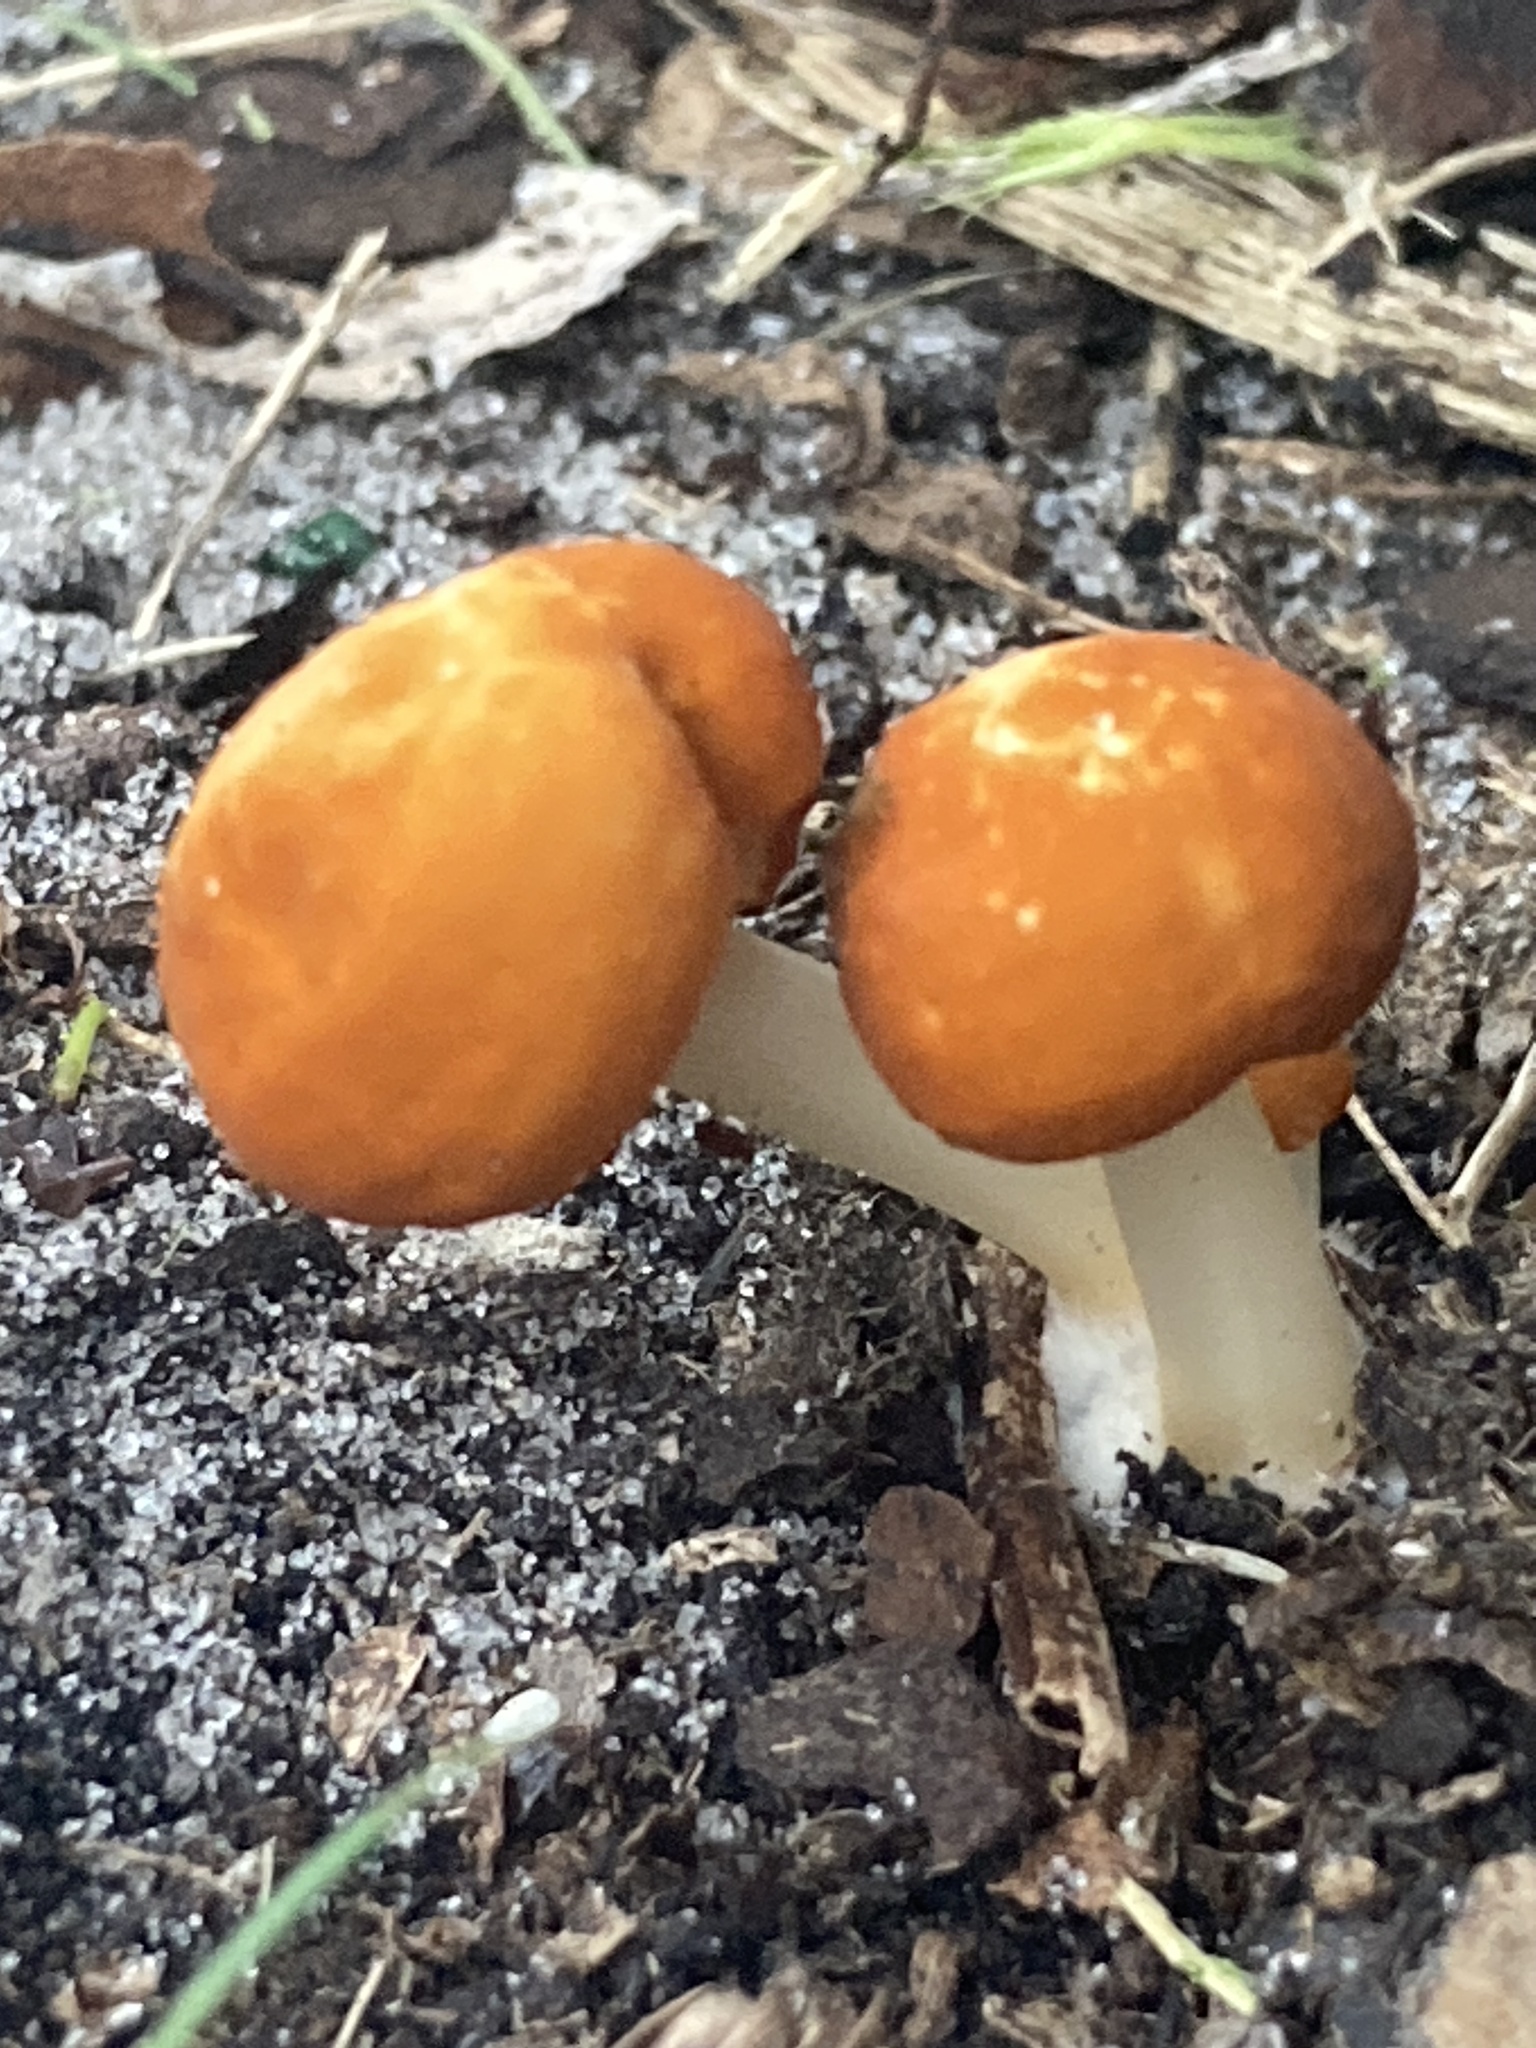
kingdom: Fungi
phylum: Basidiomycota
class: Agaricomycetes
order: Agaricales
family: Marasmiaceae
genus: Marasmius
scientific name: Marasmius vagus
